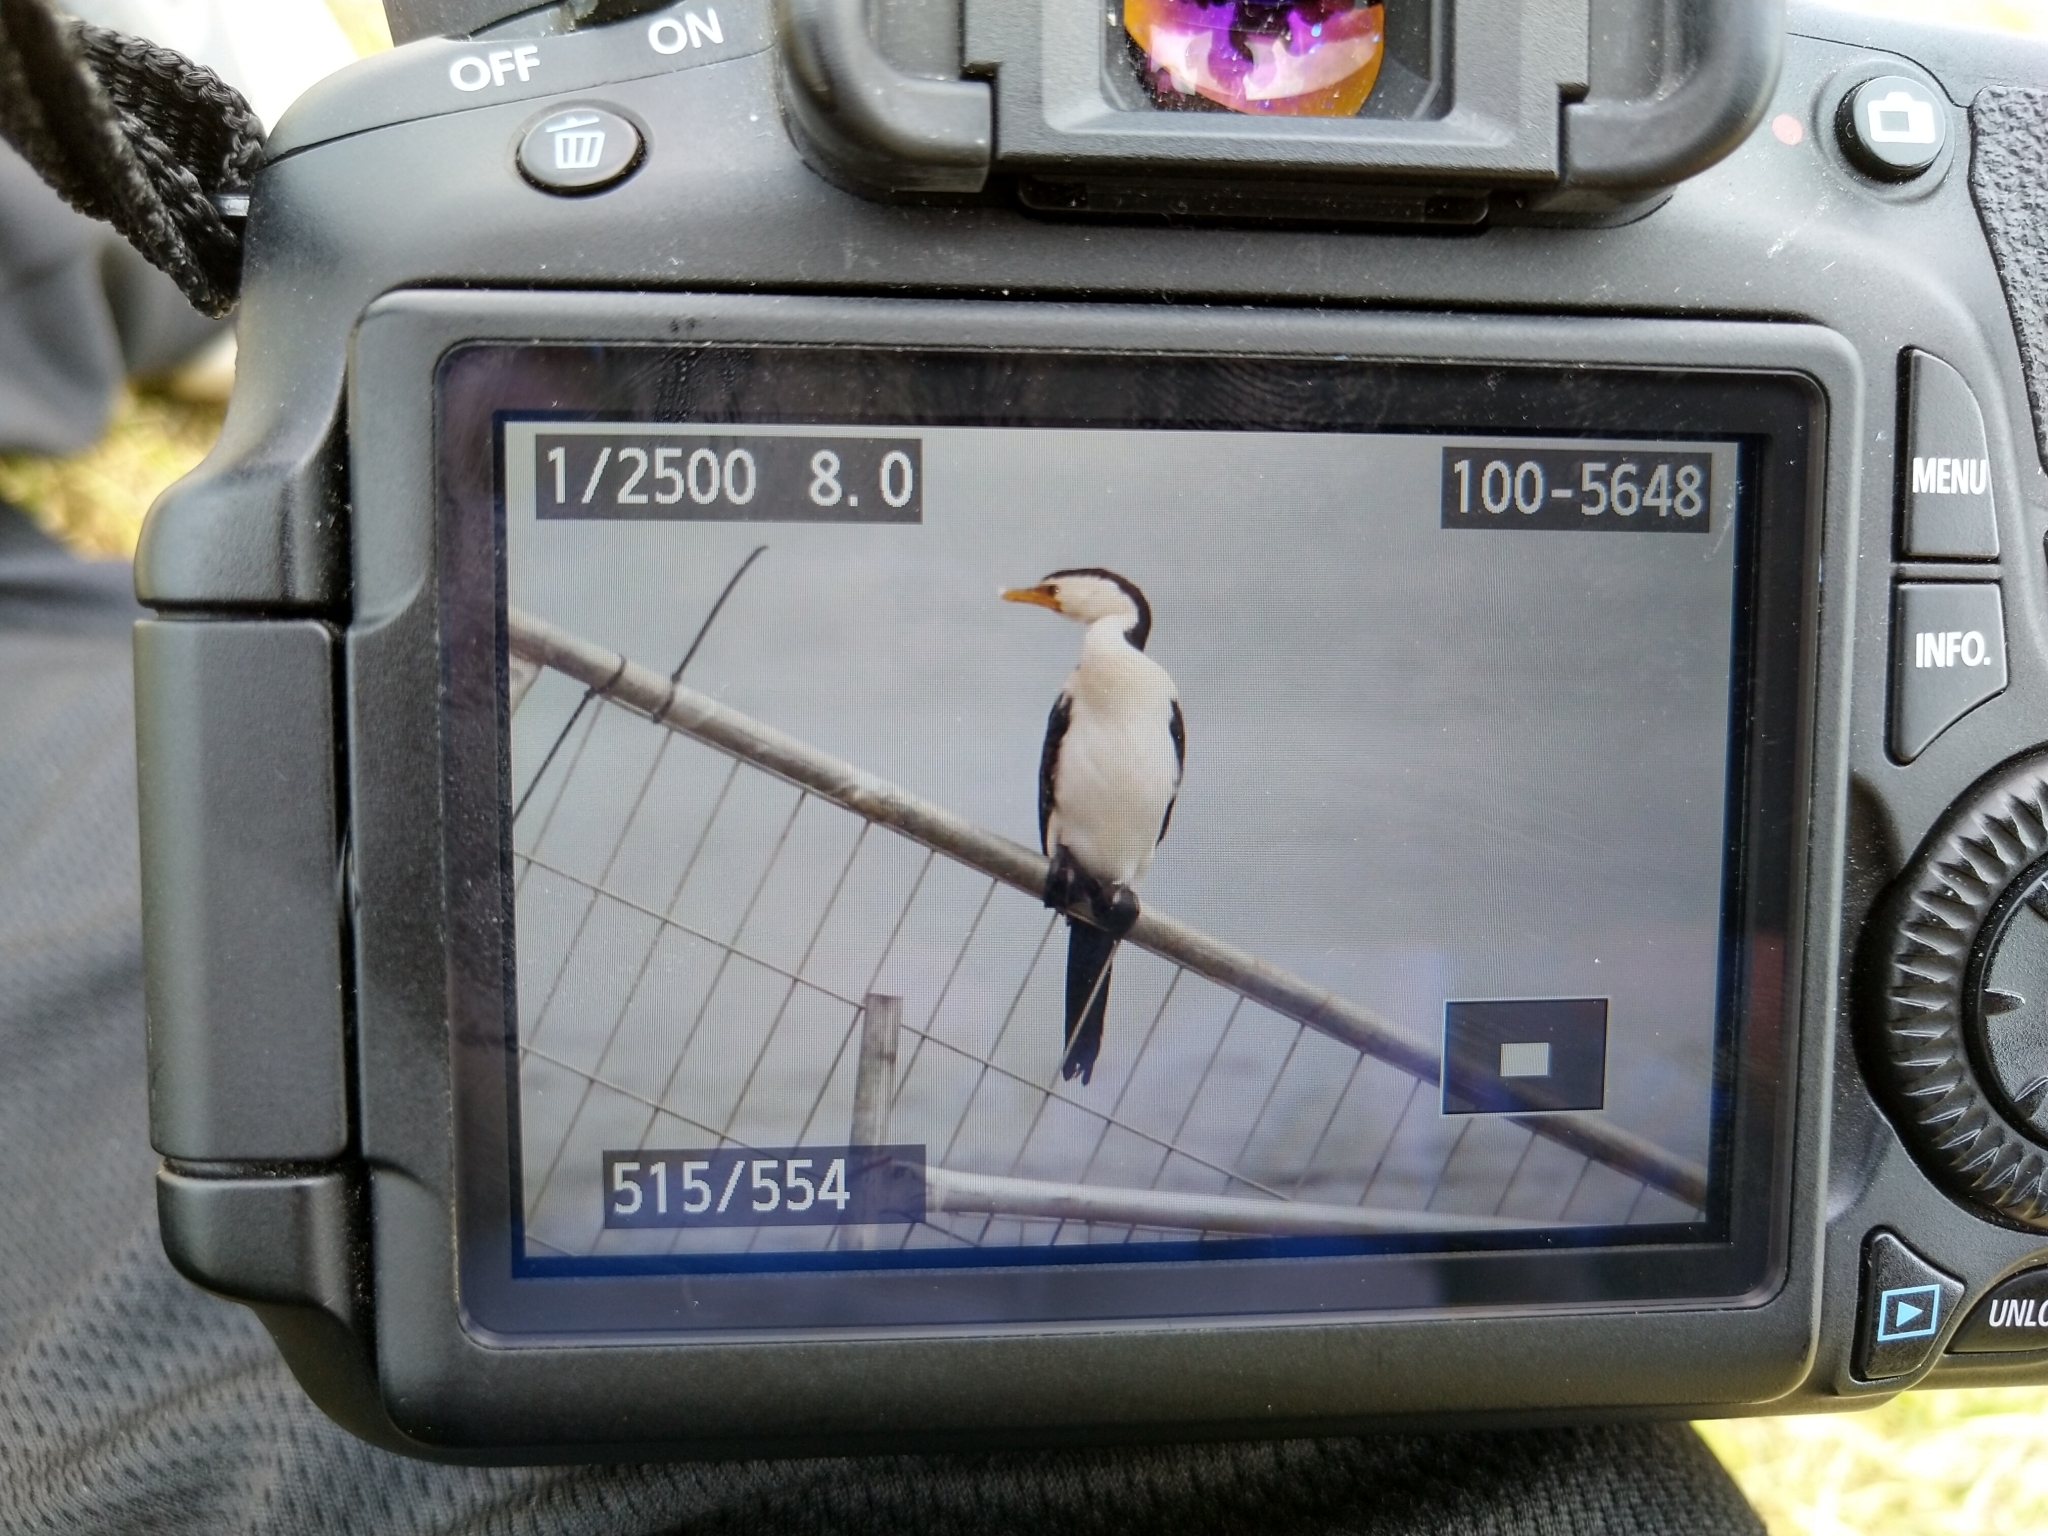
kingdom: Animalia
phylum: Chordata
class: Aves
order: Suliformes
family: Phalacrocoracidae
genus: Microcarbo
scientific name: Microcarbo melanoleucos
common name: Little pied cormorant
